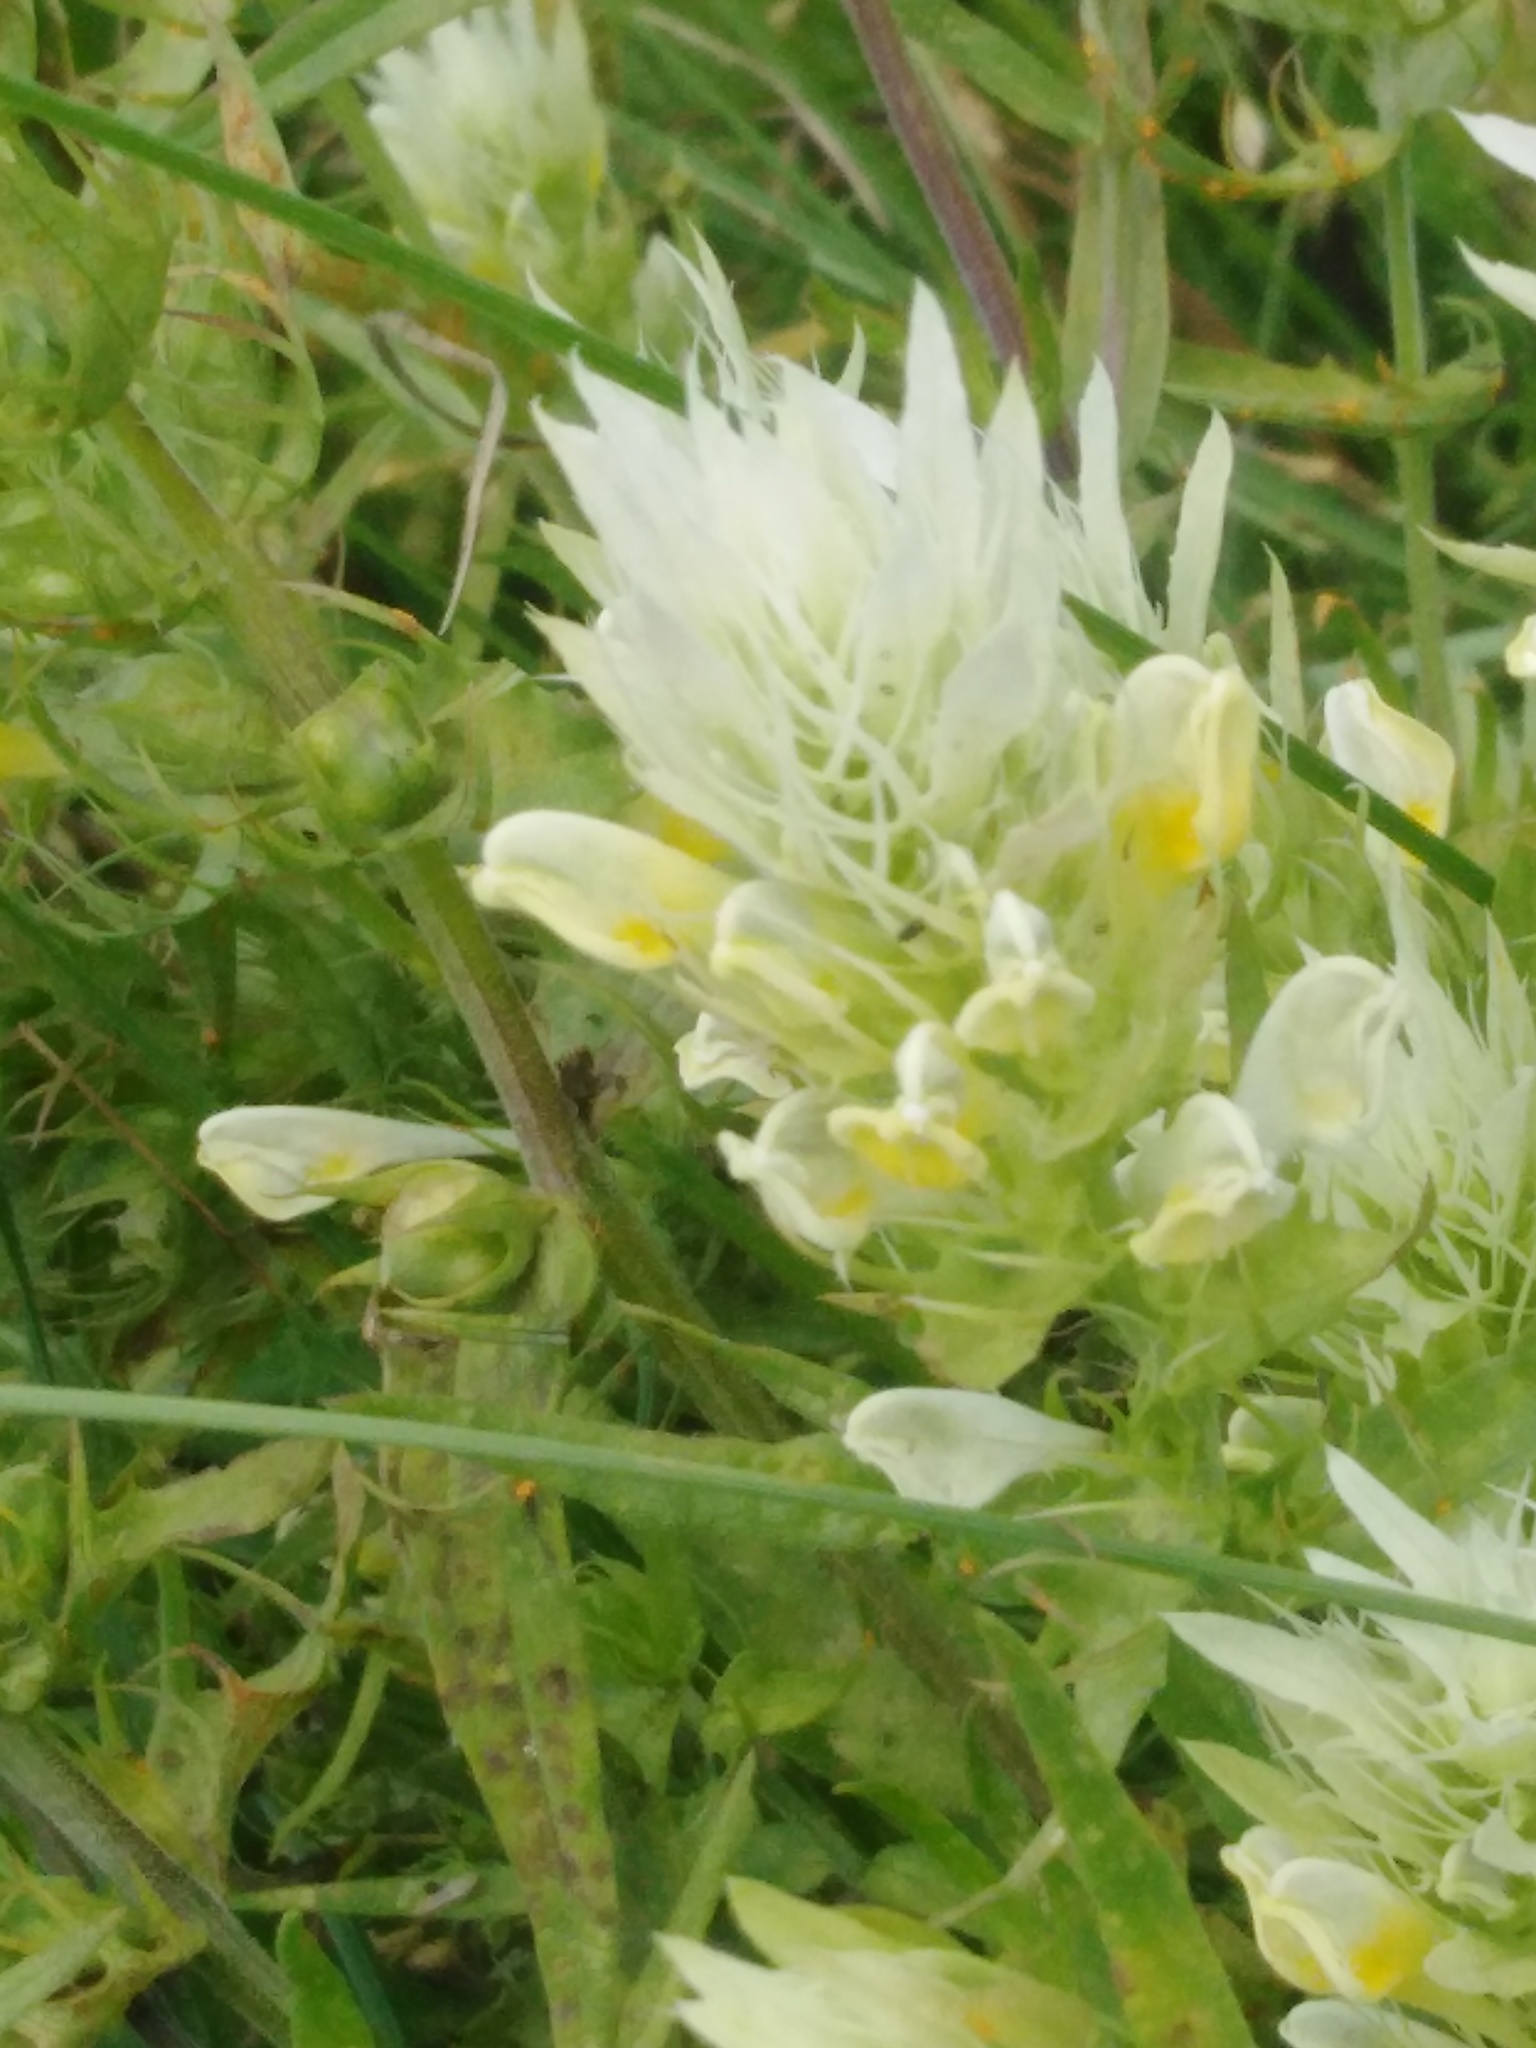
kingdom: Plantae
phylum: Tracheophyta
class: Magnoliopsida
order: Lamiales
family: Orobanchaceae
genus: Melampyrum
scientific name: Melampyrum arvense
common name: Field cow-wheat
